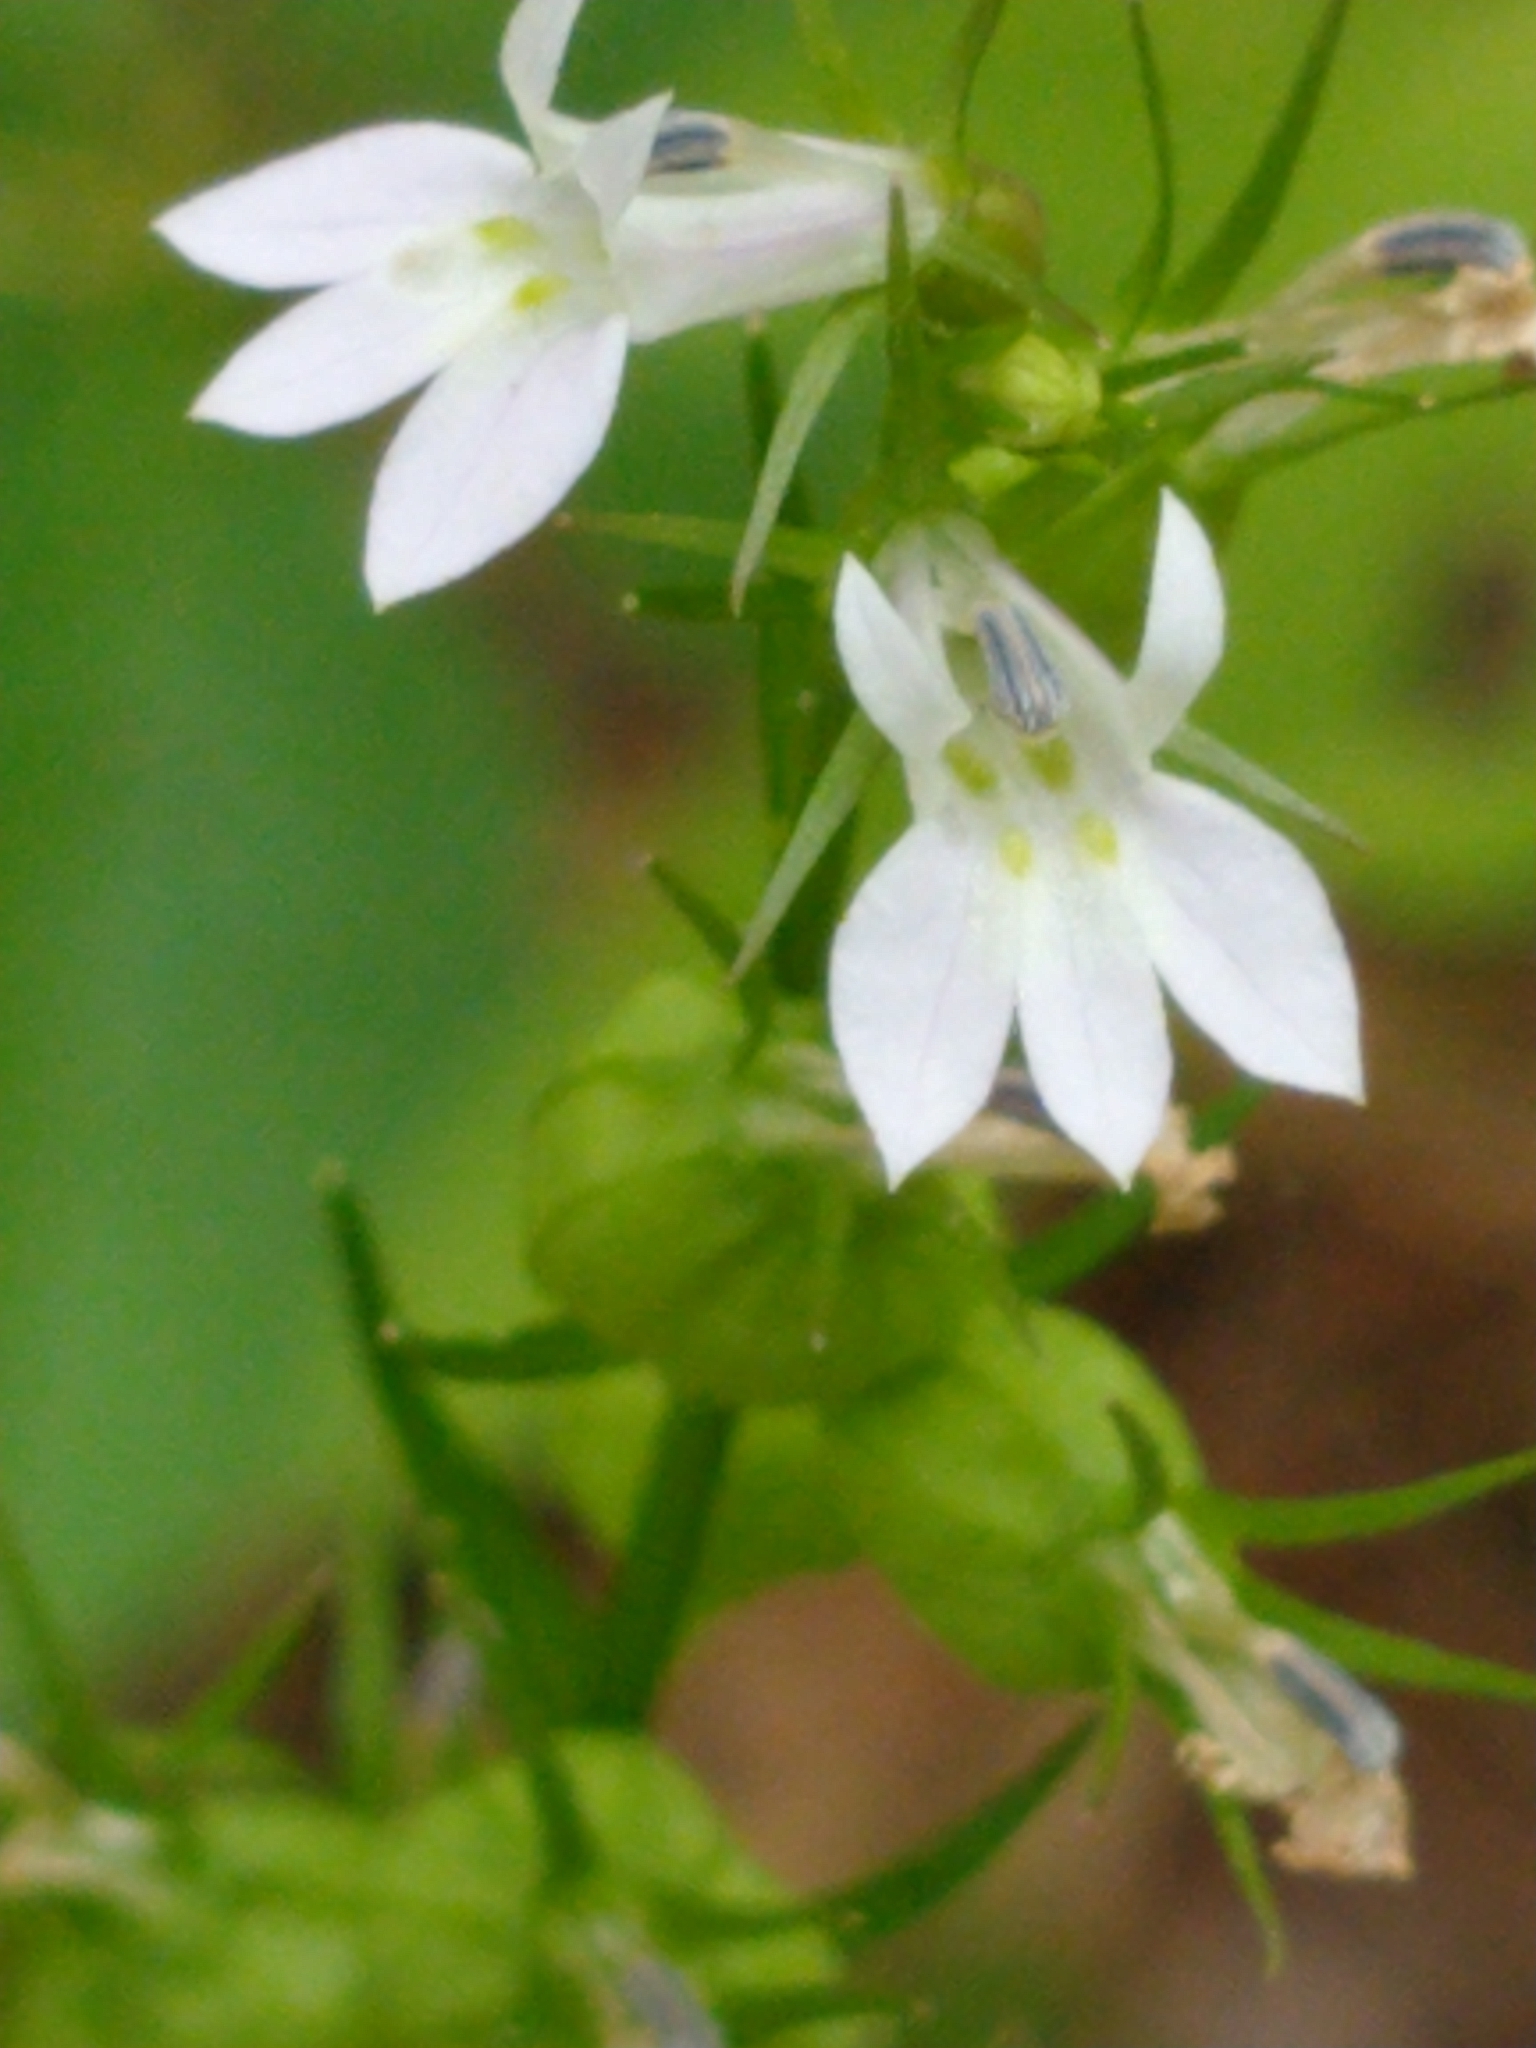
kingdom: Plantae
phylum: Tracheophyta
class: Magnoliopsida
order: Asterales
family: Campanulaceae
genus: Lobelia
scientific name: Lobelia inflata
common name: Indian tobacco
